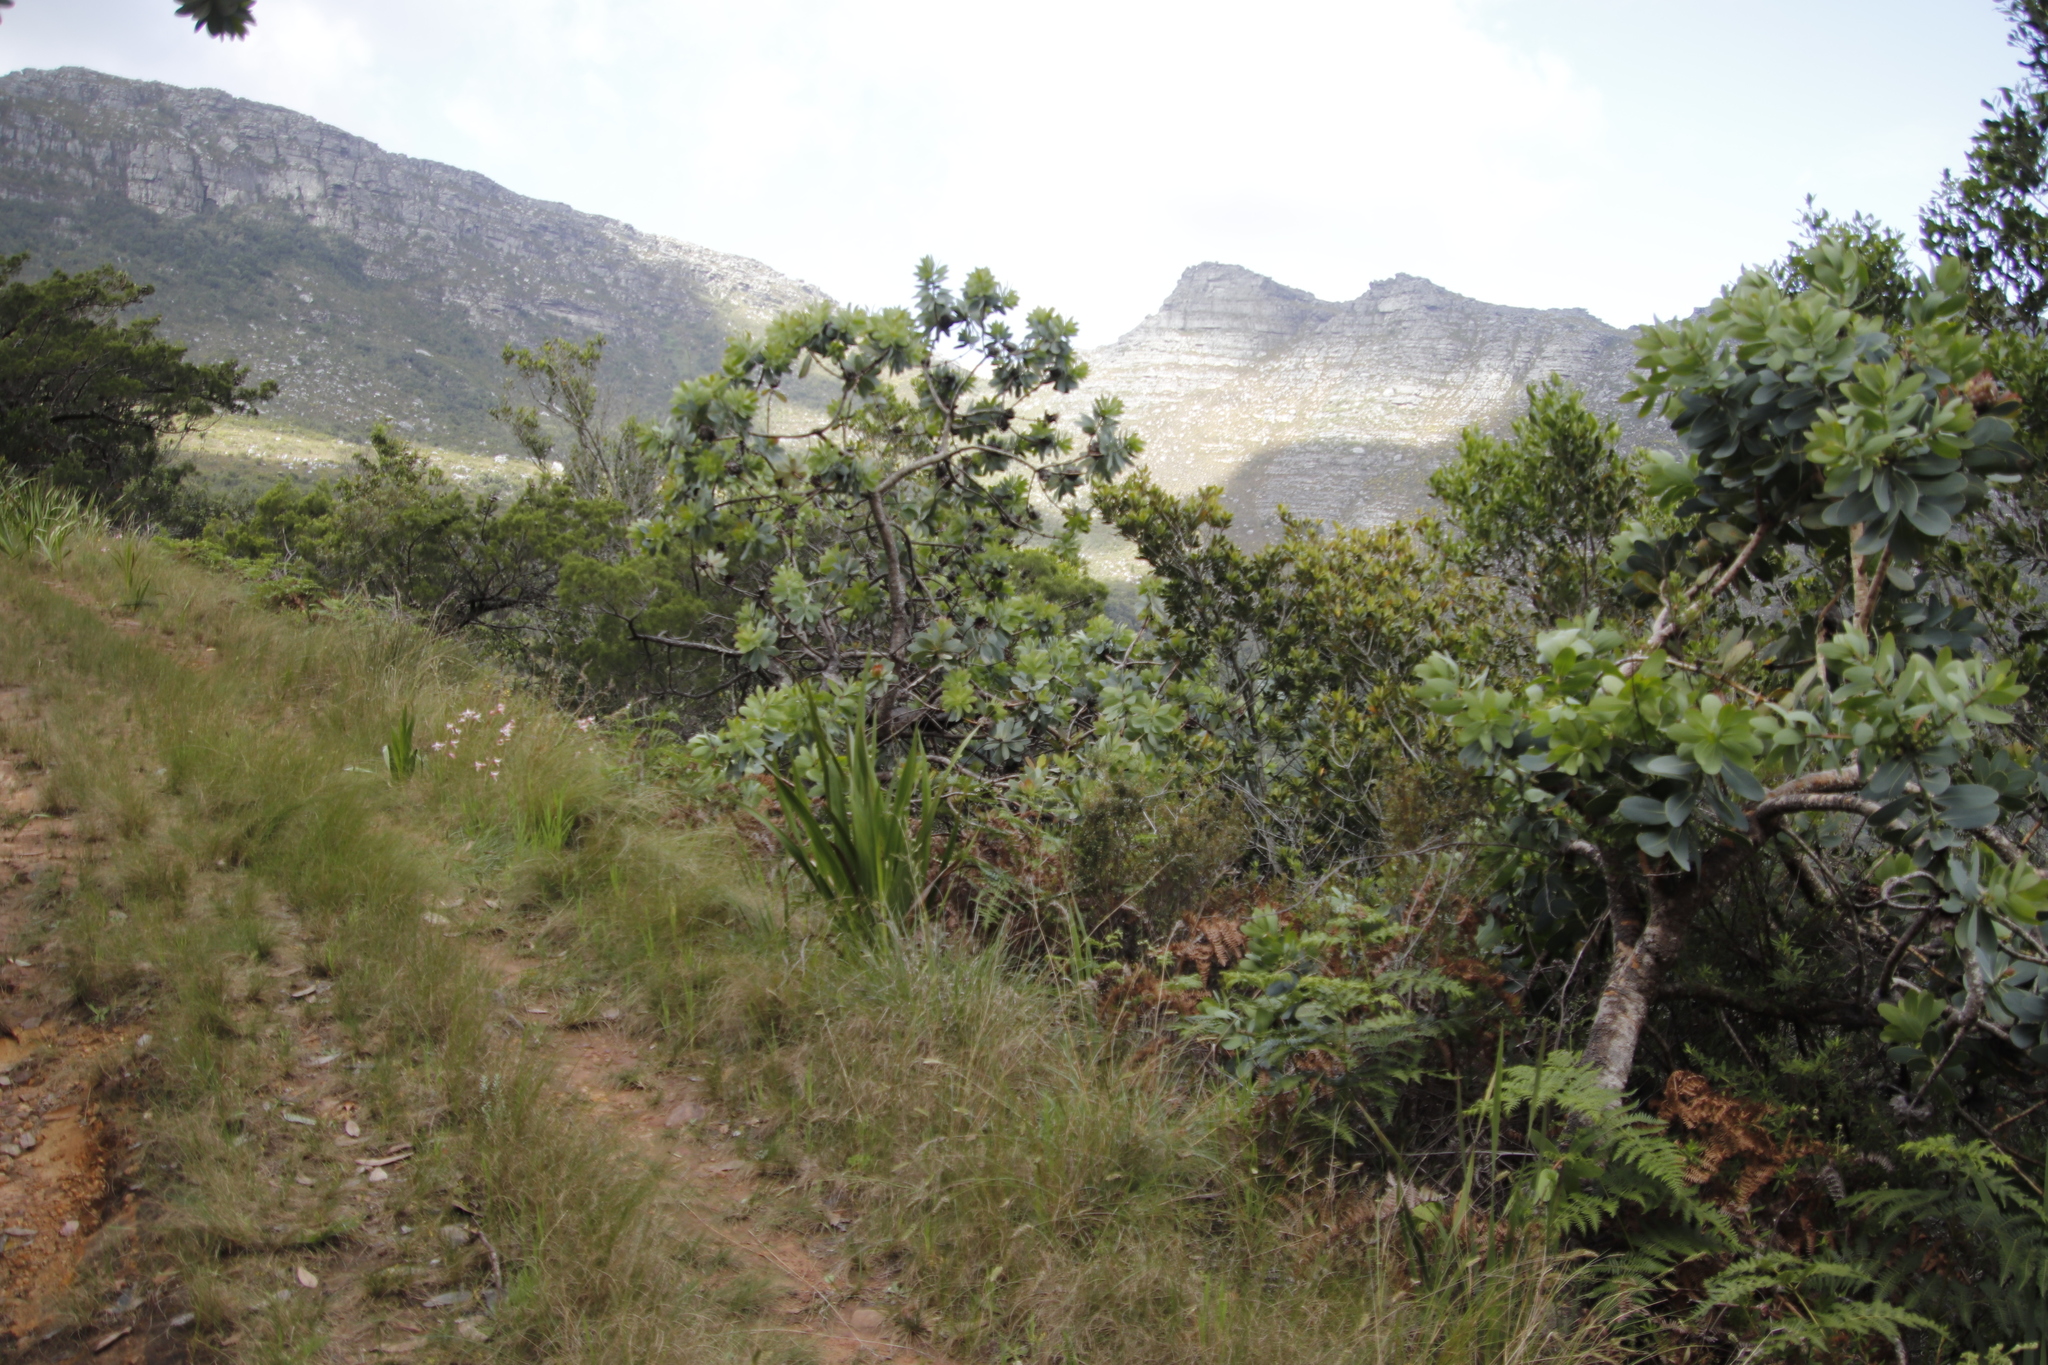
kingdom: Plantae
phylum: Tracheophyta
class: Magnoliopsida
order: Proteales
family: Proteaceae
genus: Protea
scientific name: Protea nitida
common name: Tree protea
